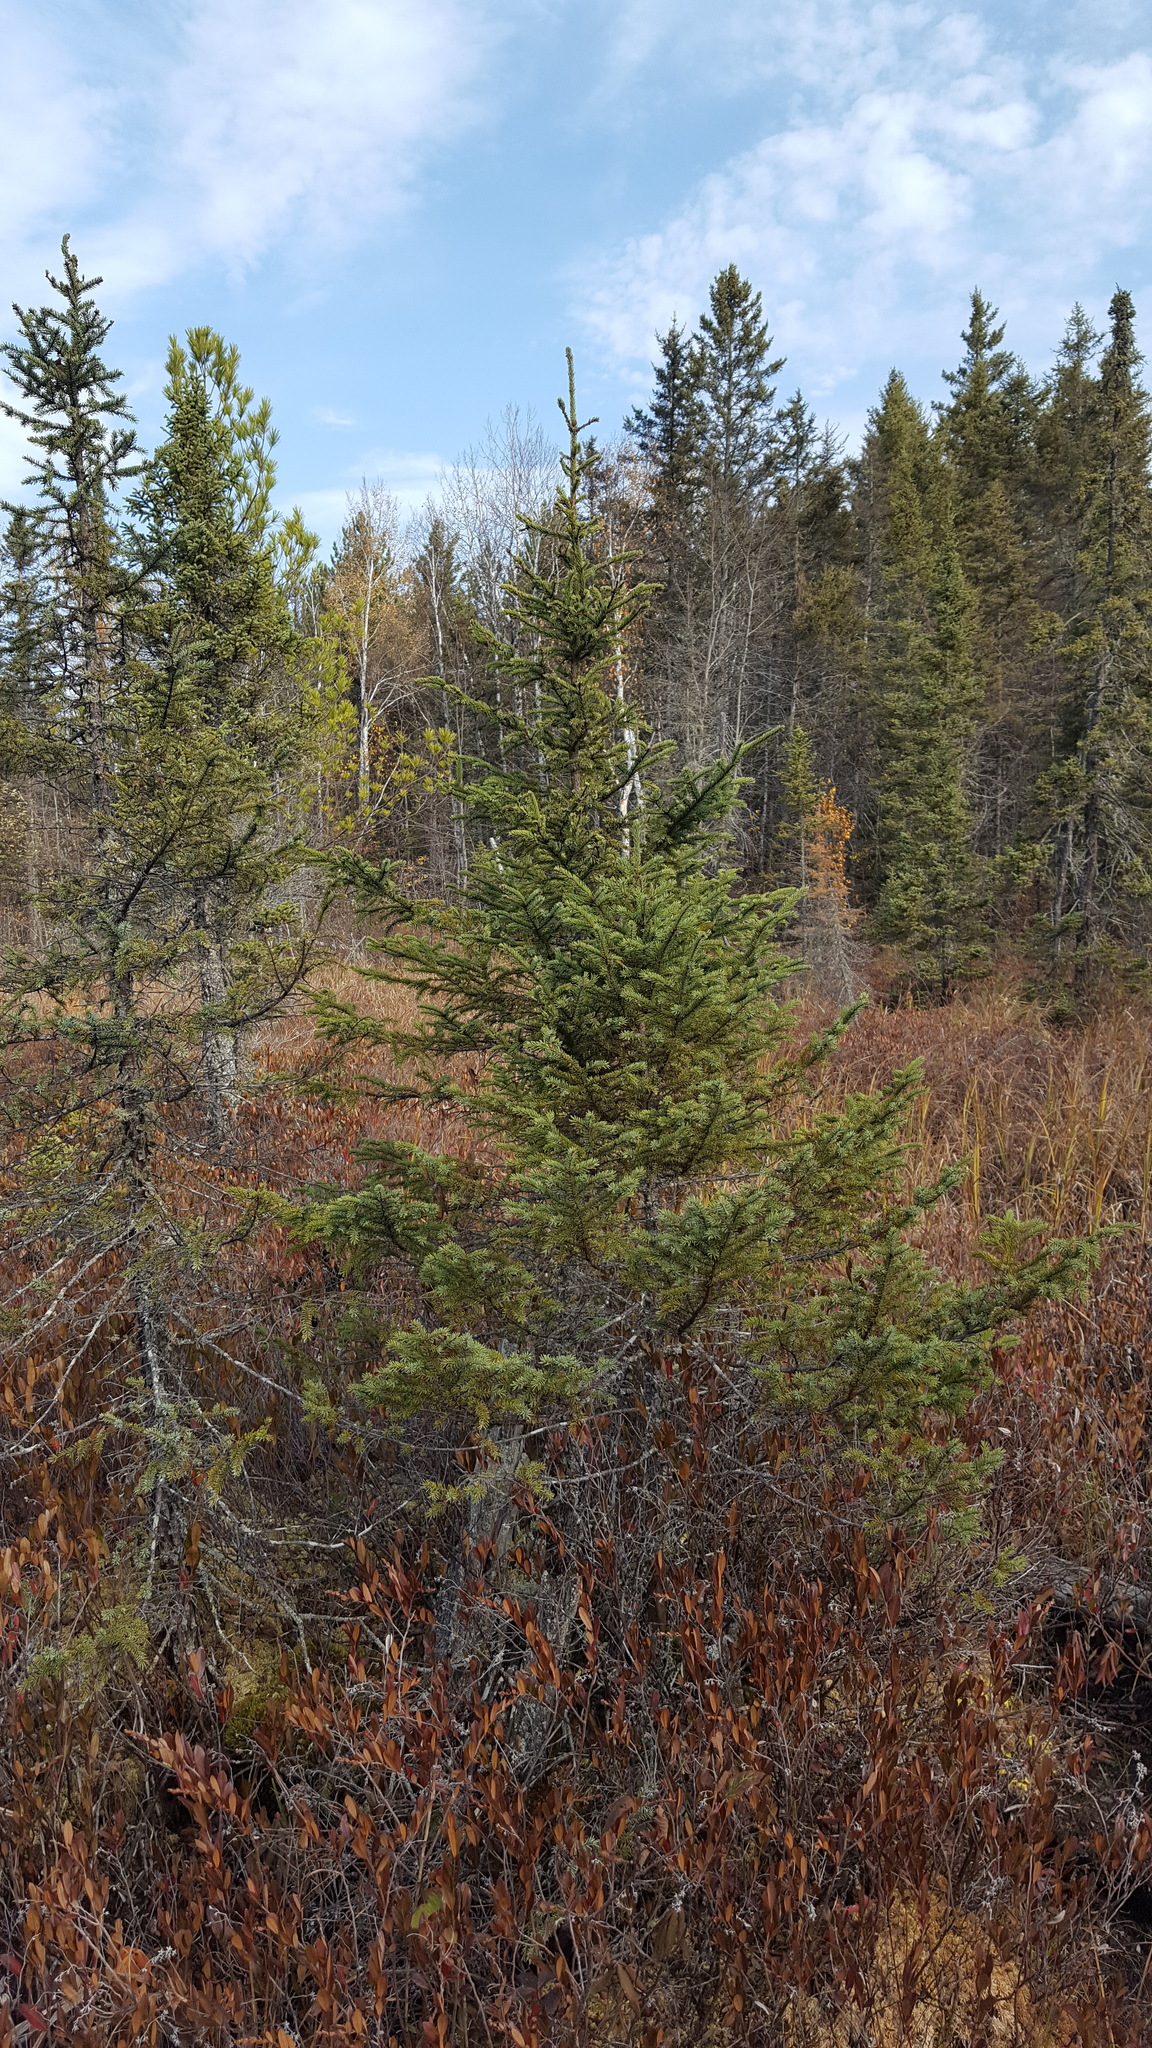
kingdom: Plantae
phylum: Tracheophyta
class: Pinopsida
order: Pinales
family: Pinaceae
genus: Picea
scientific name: Picea mariana
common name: Black spruce
